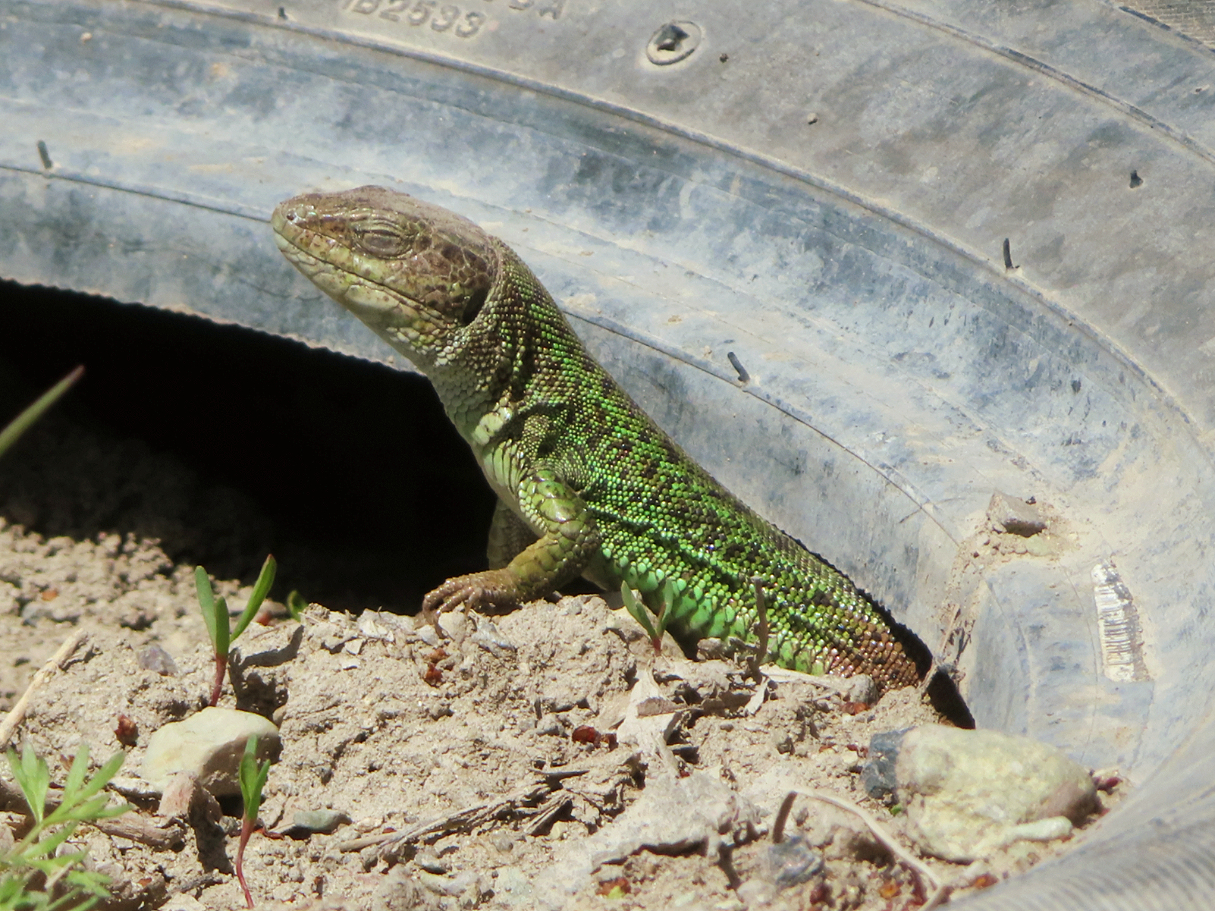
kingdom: Animalia
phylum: Chordata
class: Squamata
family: Lacertidae
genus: Lacerta
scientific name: Lacerta strigata
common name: Caspian green lizard
